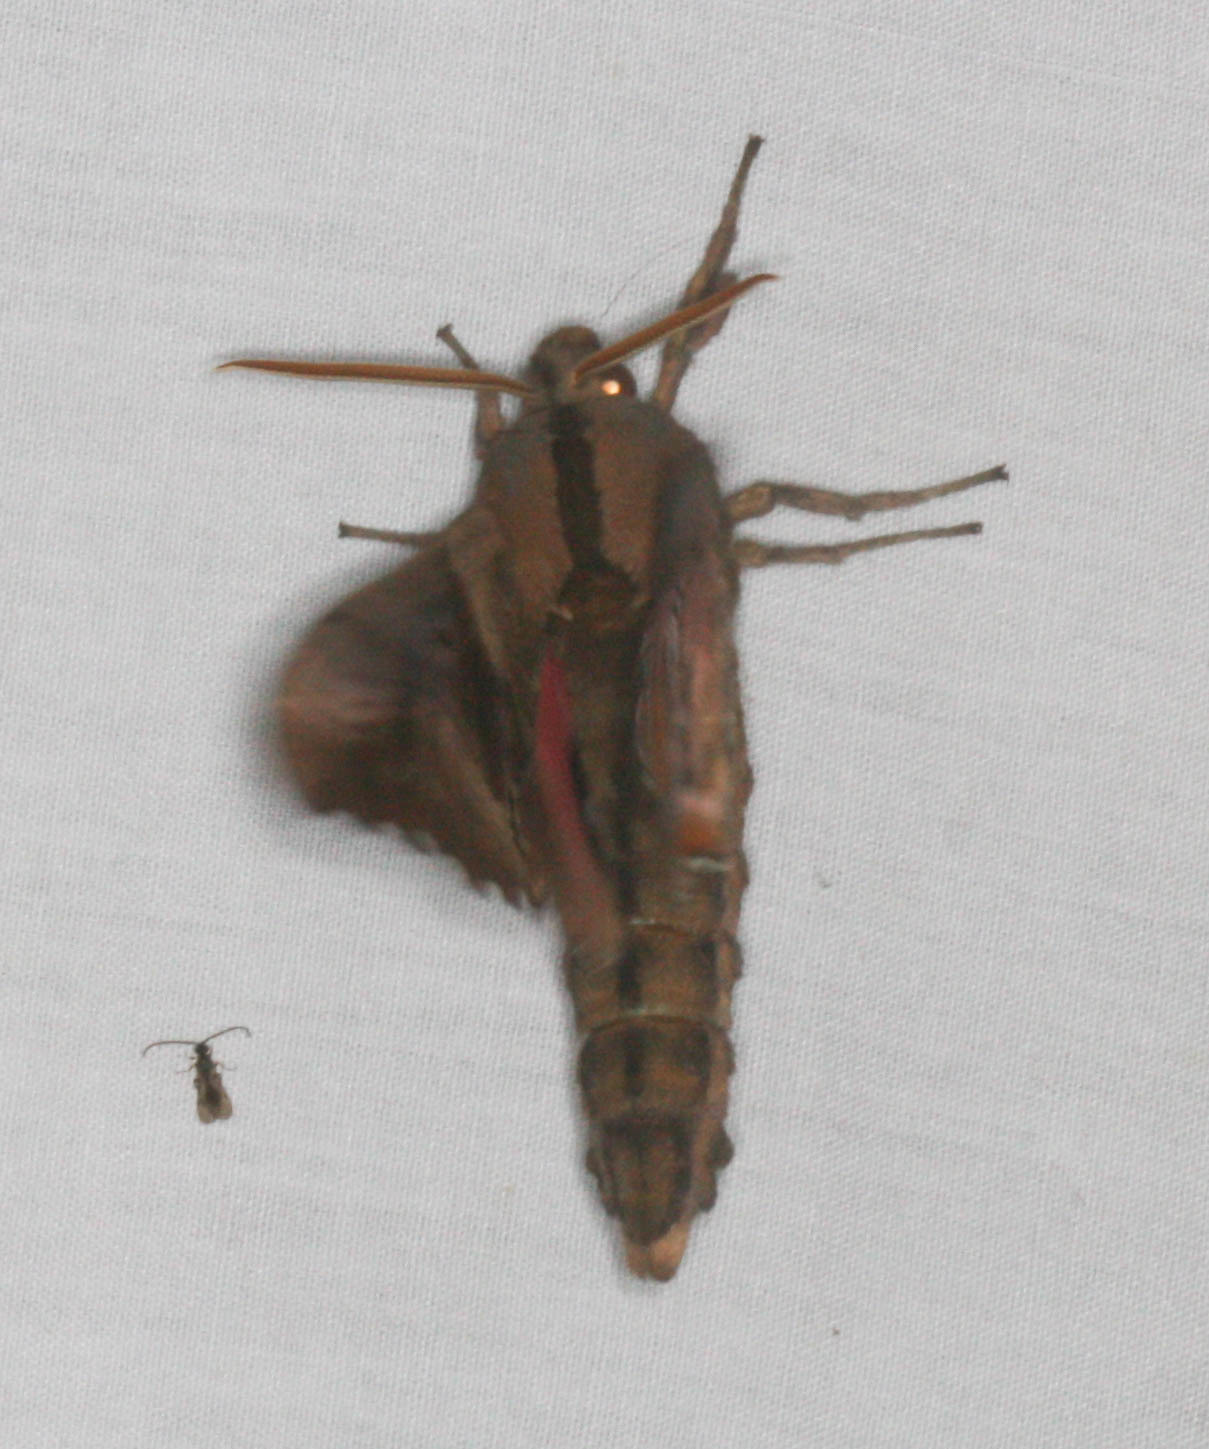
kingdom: Animalia
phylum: Arthropoda
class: Insecta
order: Lepidoptera
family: Sphingidae
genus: Paonias
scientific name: Paonias excaecata
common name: Blind-eyed sphinx
